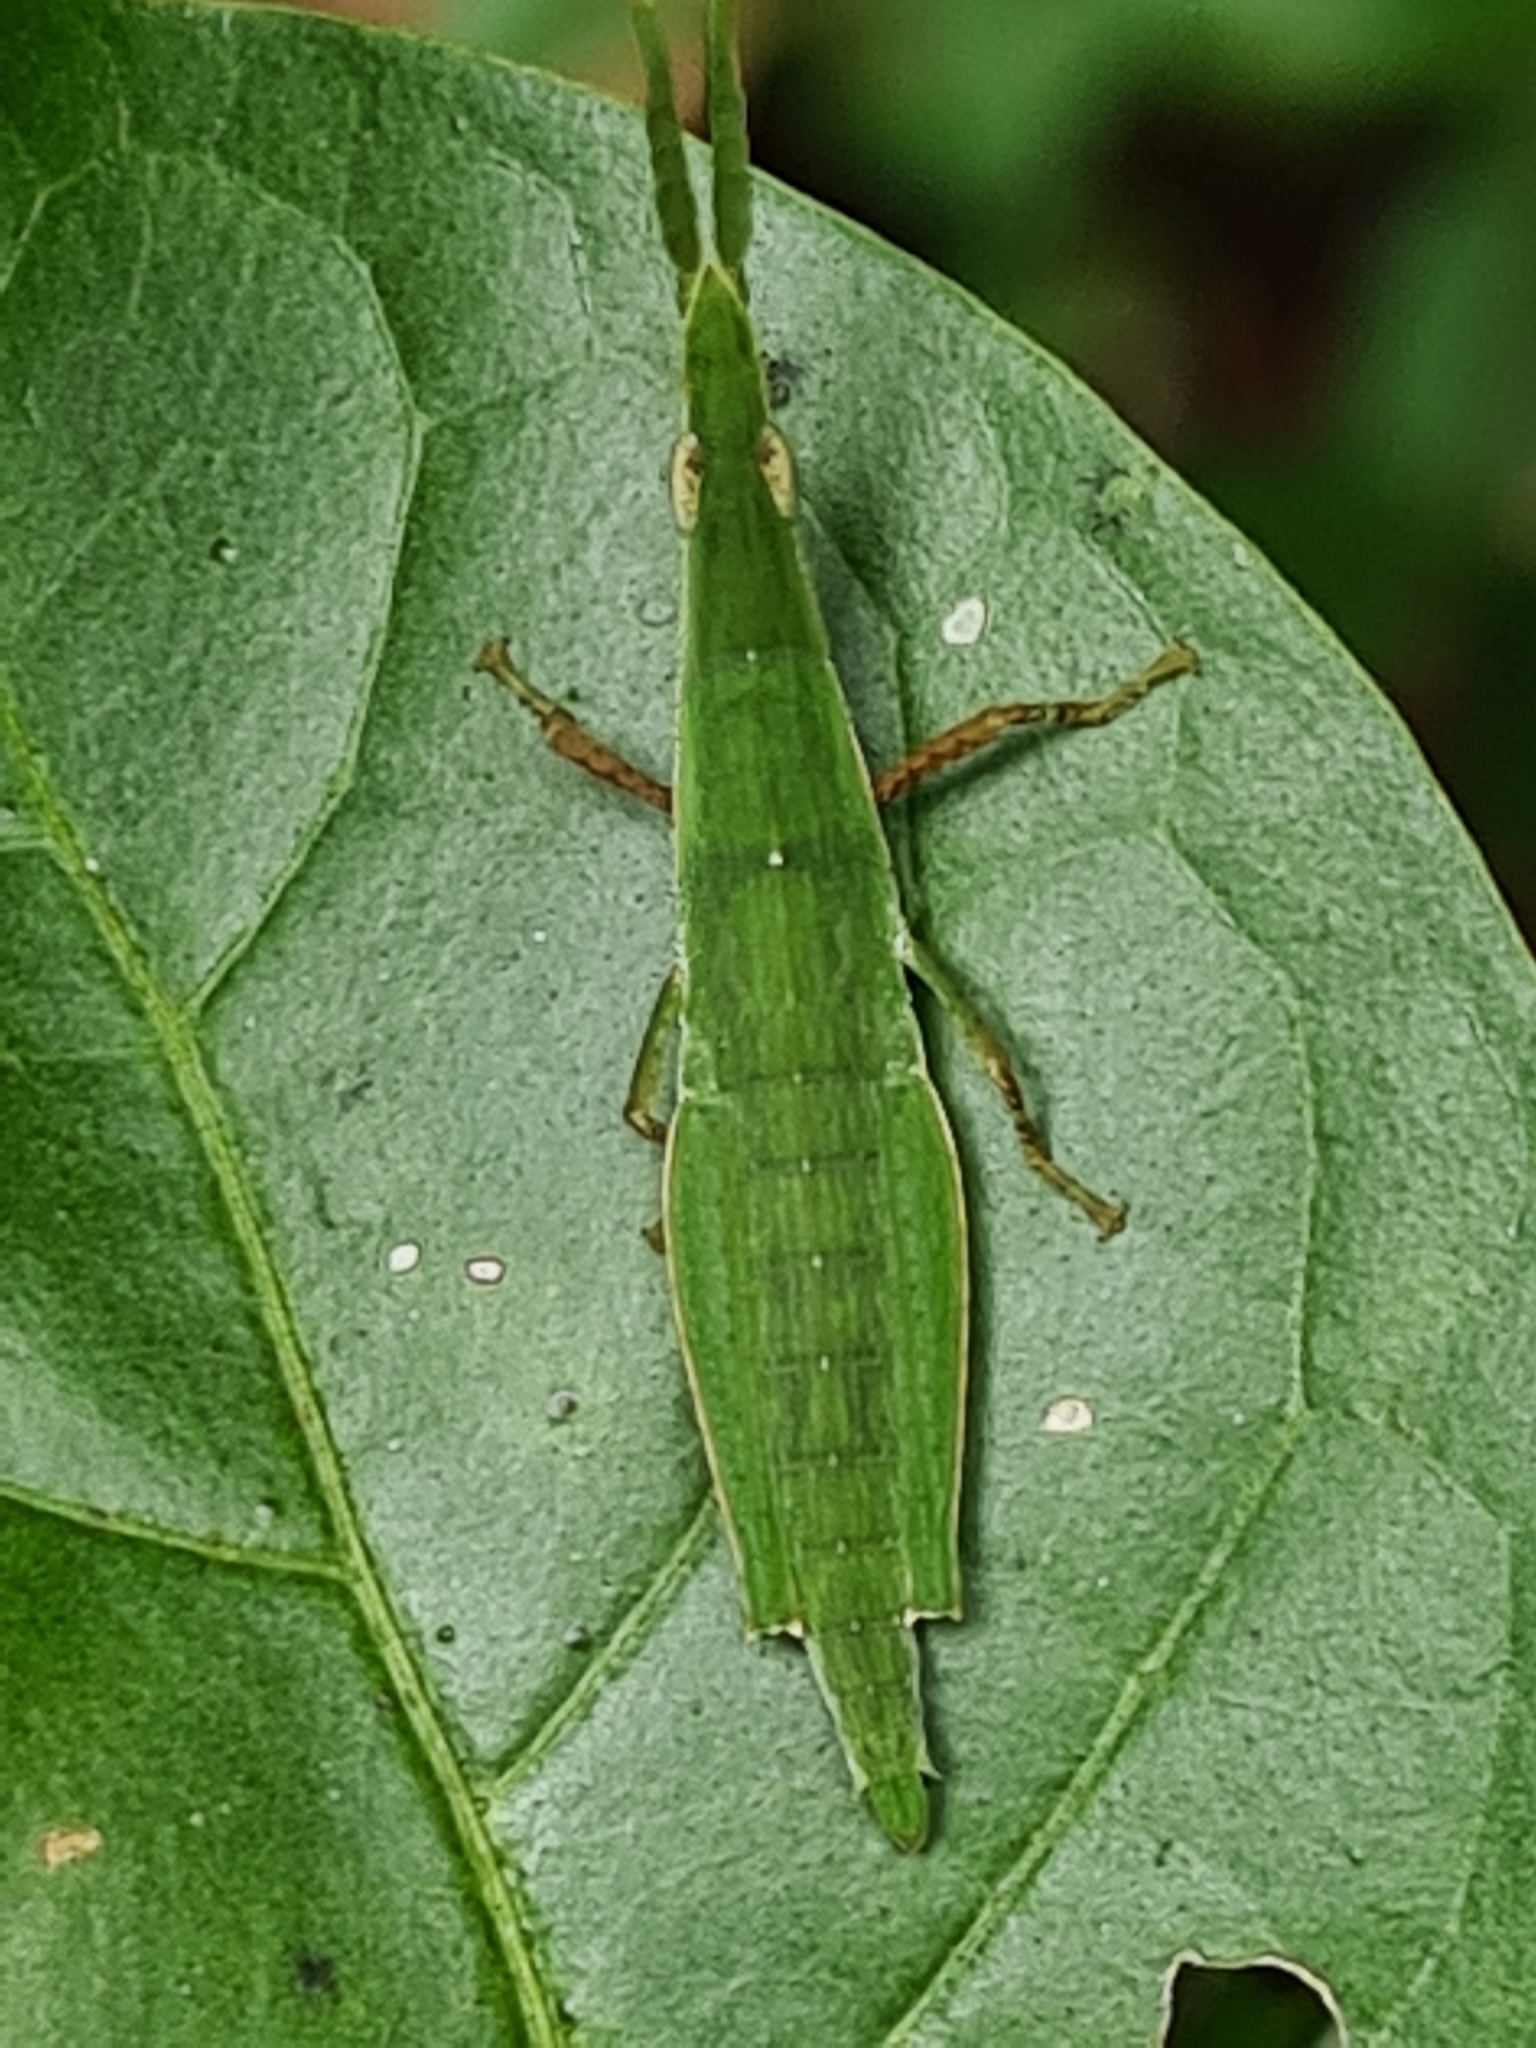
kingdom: Animalia
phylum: Arthropoda
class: Insecta
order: Orthoptera
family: Pyrgomorphidae
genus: Omura
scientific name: Omura congrua
